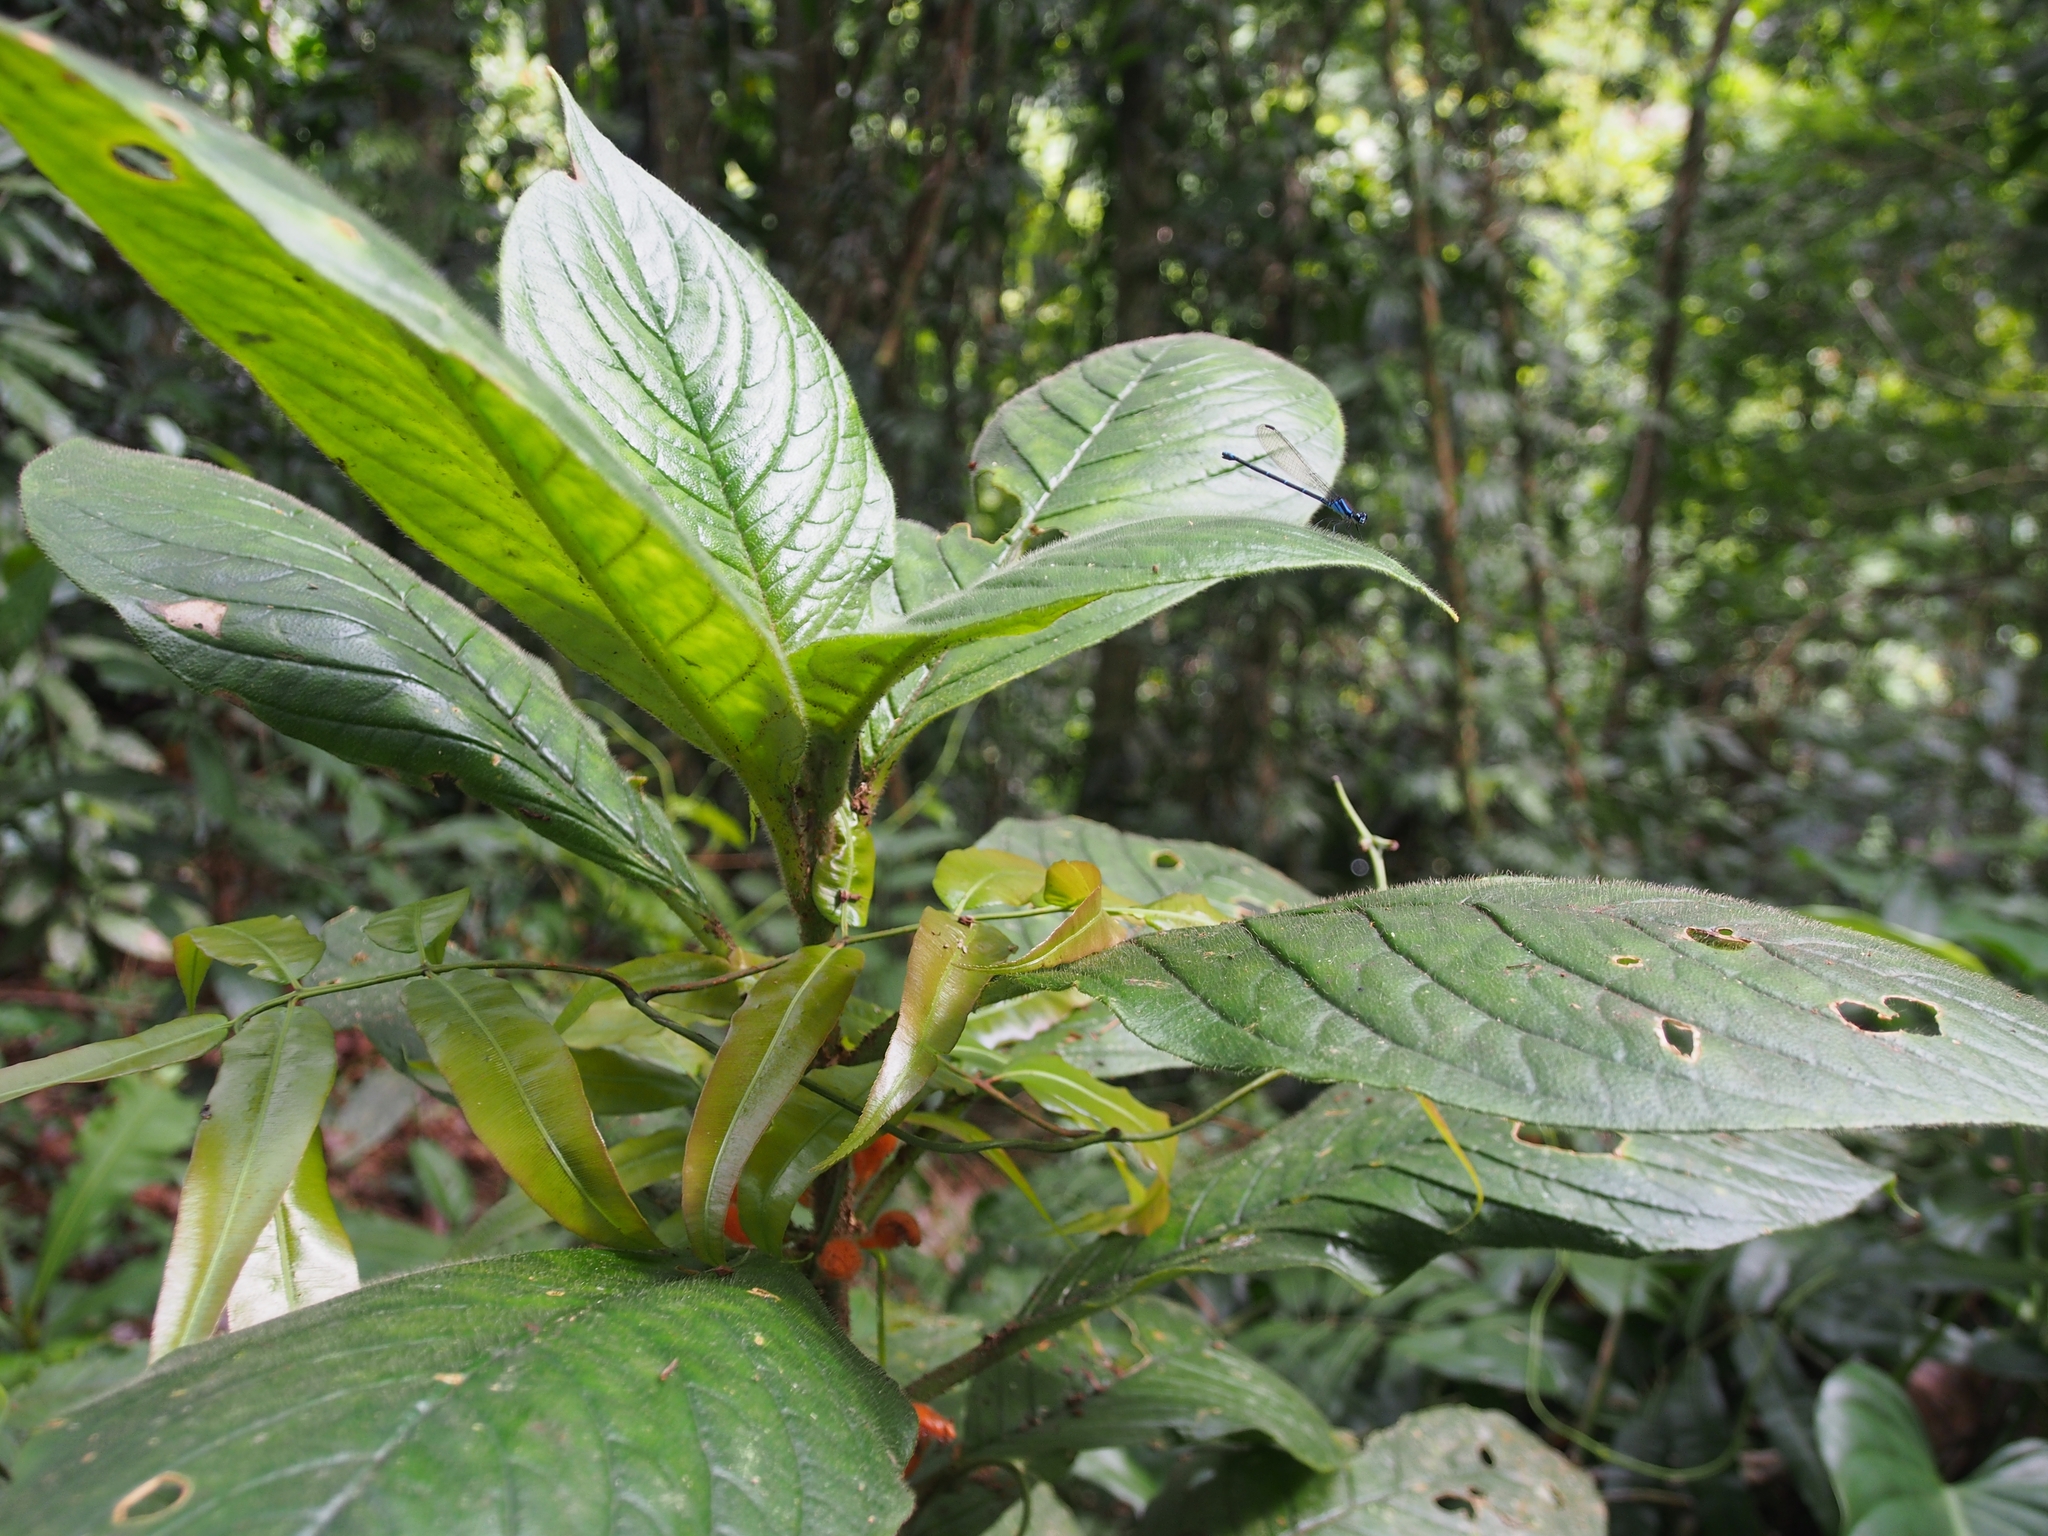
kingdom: Plantae
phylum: Tracheophyta
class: Magnoliopsida
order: Lamiales
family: Gesneriaceae
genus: Besleria
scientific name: Besleria robusta
